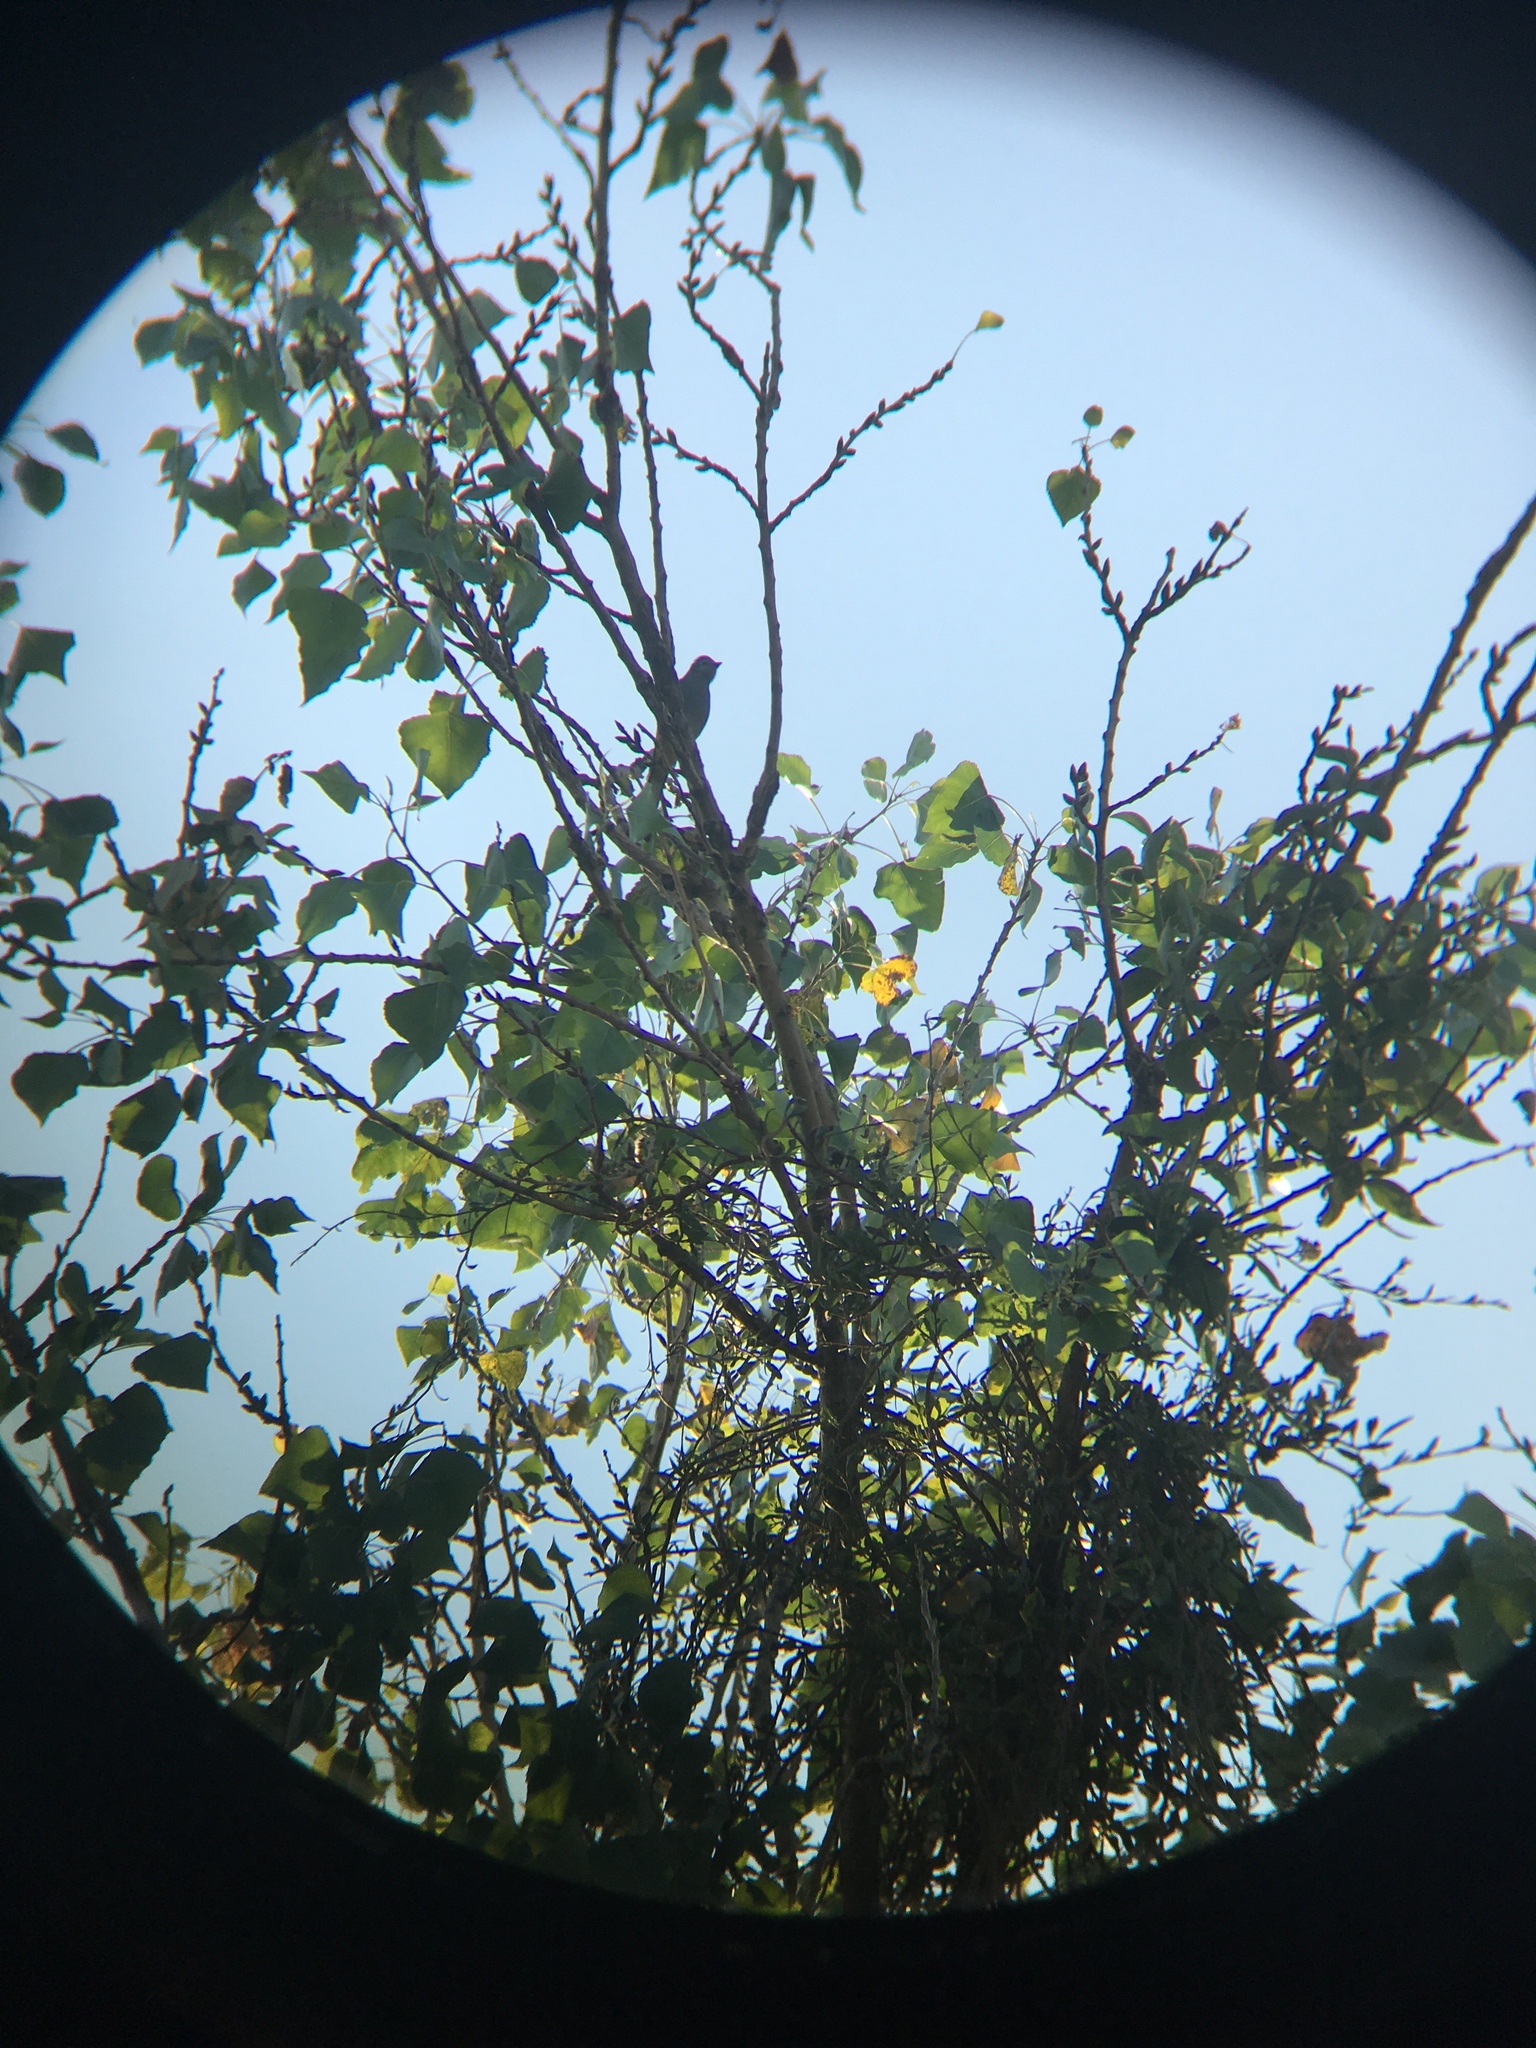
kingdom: Animalia
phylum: Chordata
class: Aves
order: Passeriformes
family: Ptilogonatidae
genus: Ptilogonys
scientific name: Ptilogonys cinereus
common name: Gray silky-flycatcher
